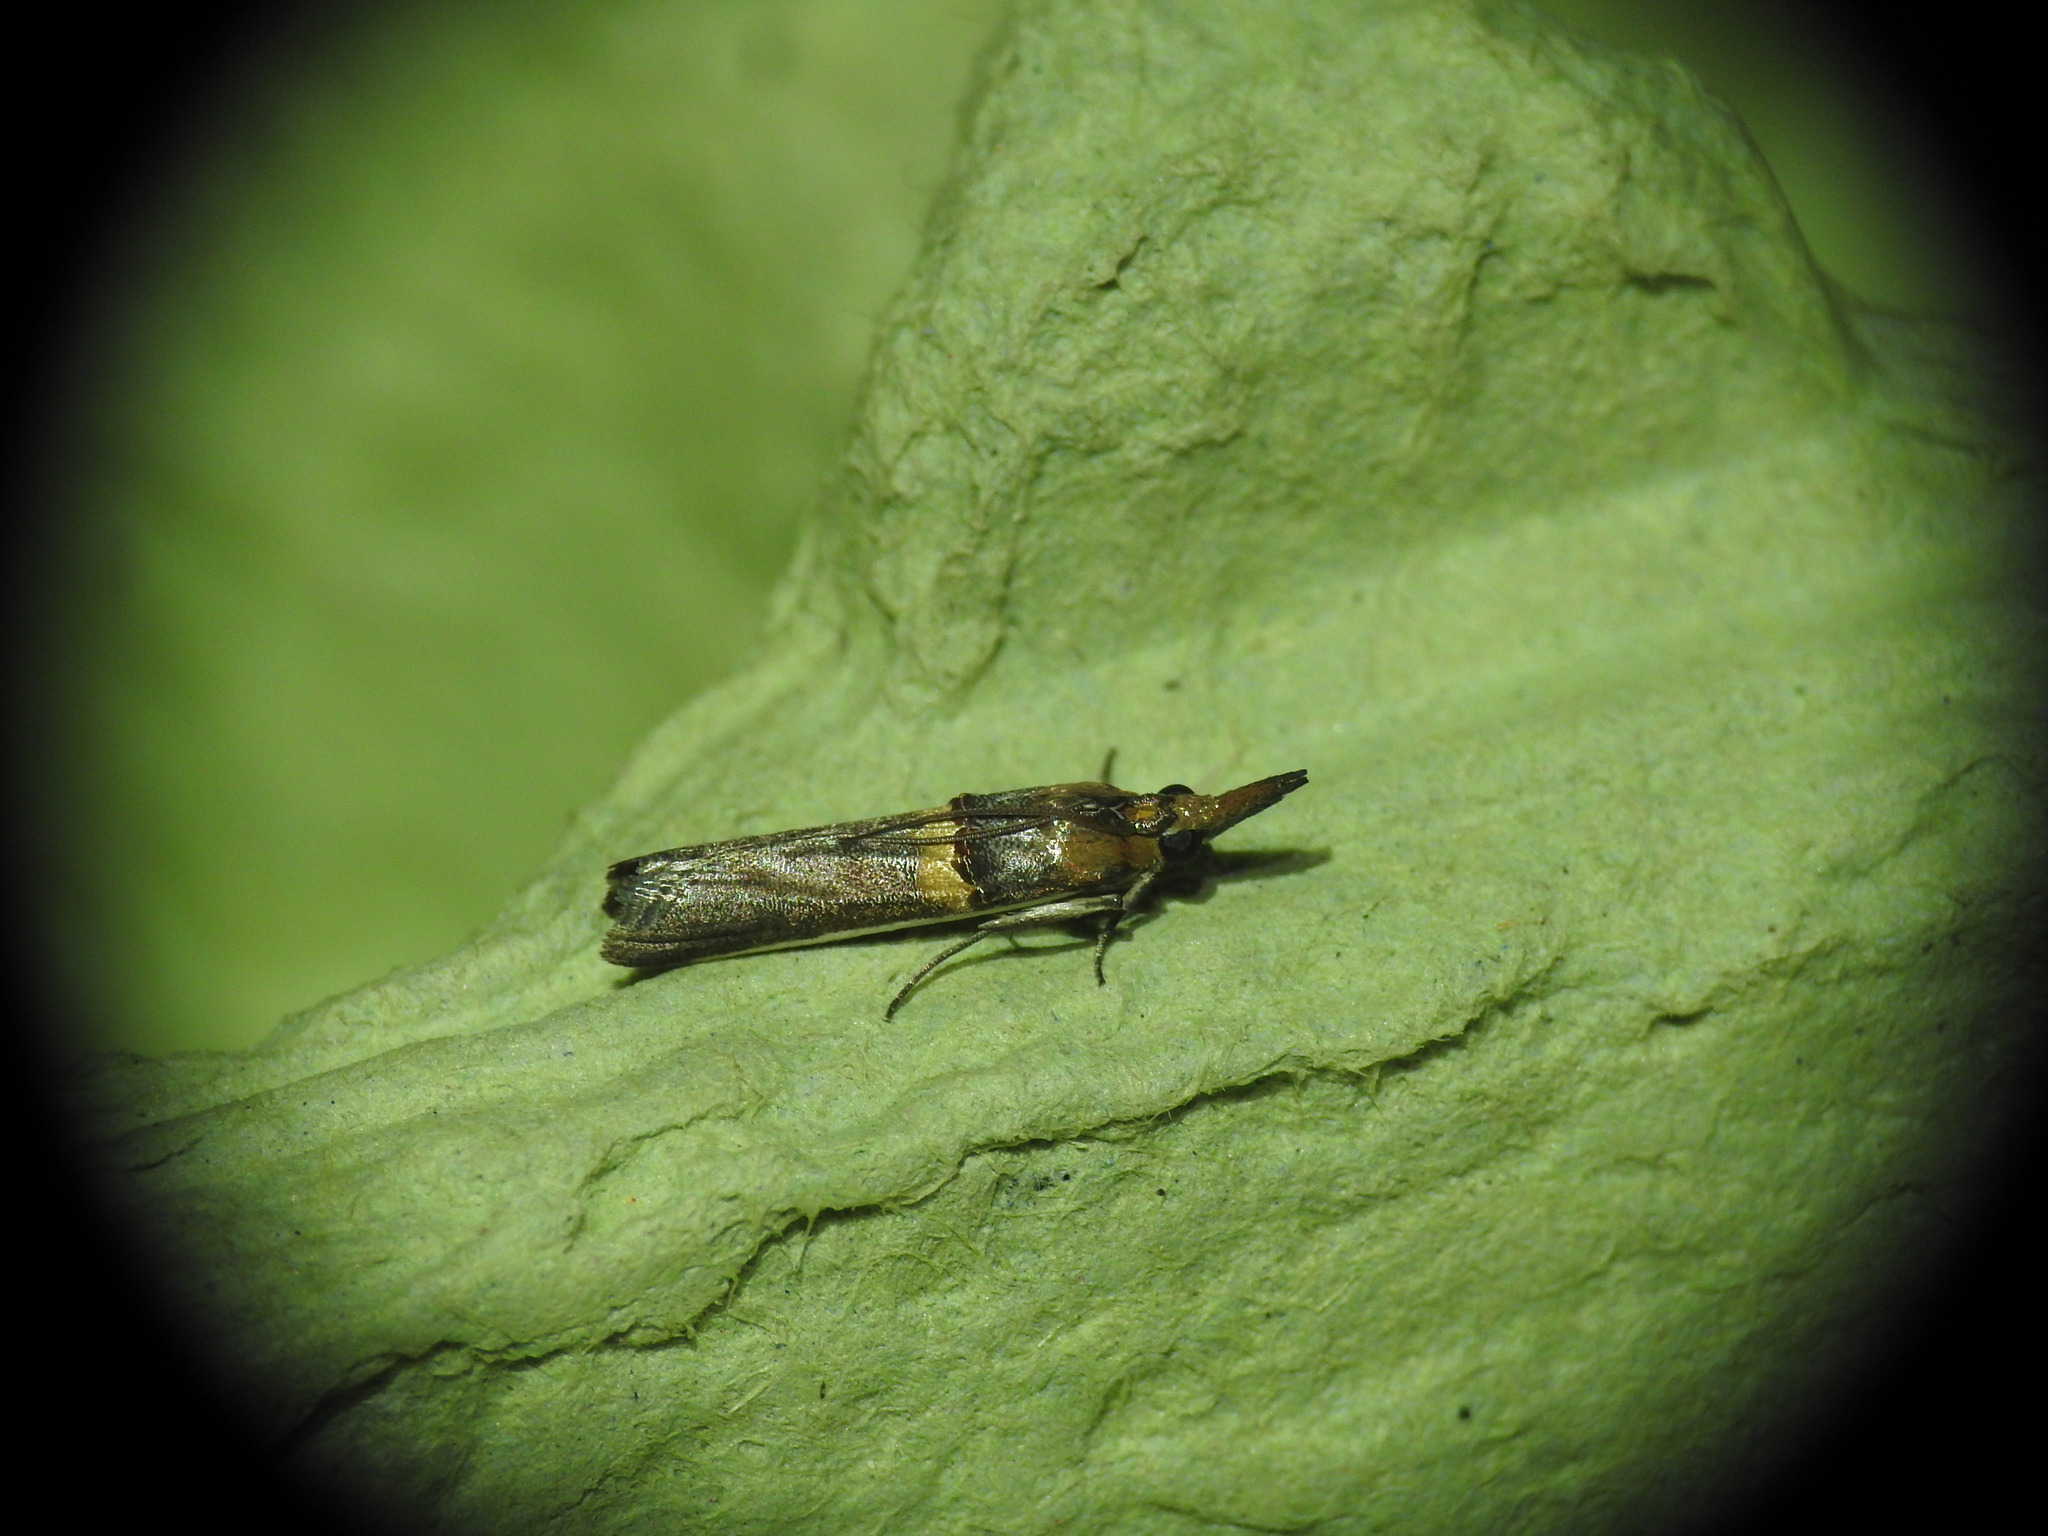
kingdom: Animalia
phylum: Arthropoda
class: Insecta
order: Lepidoptera
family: Pyralidae
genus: Etiella
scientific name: Etiella zinckenella
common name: Gold-banded etiella moth
